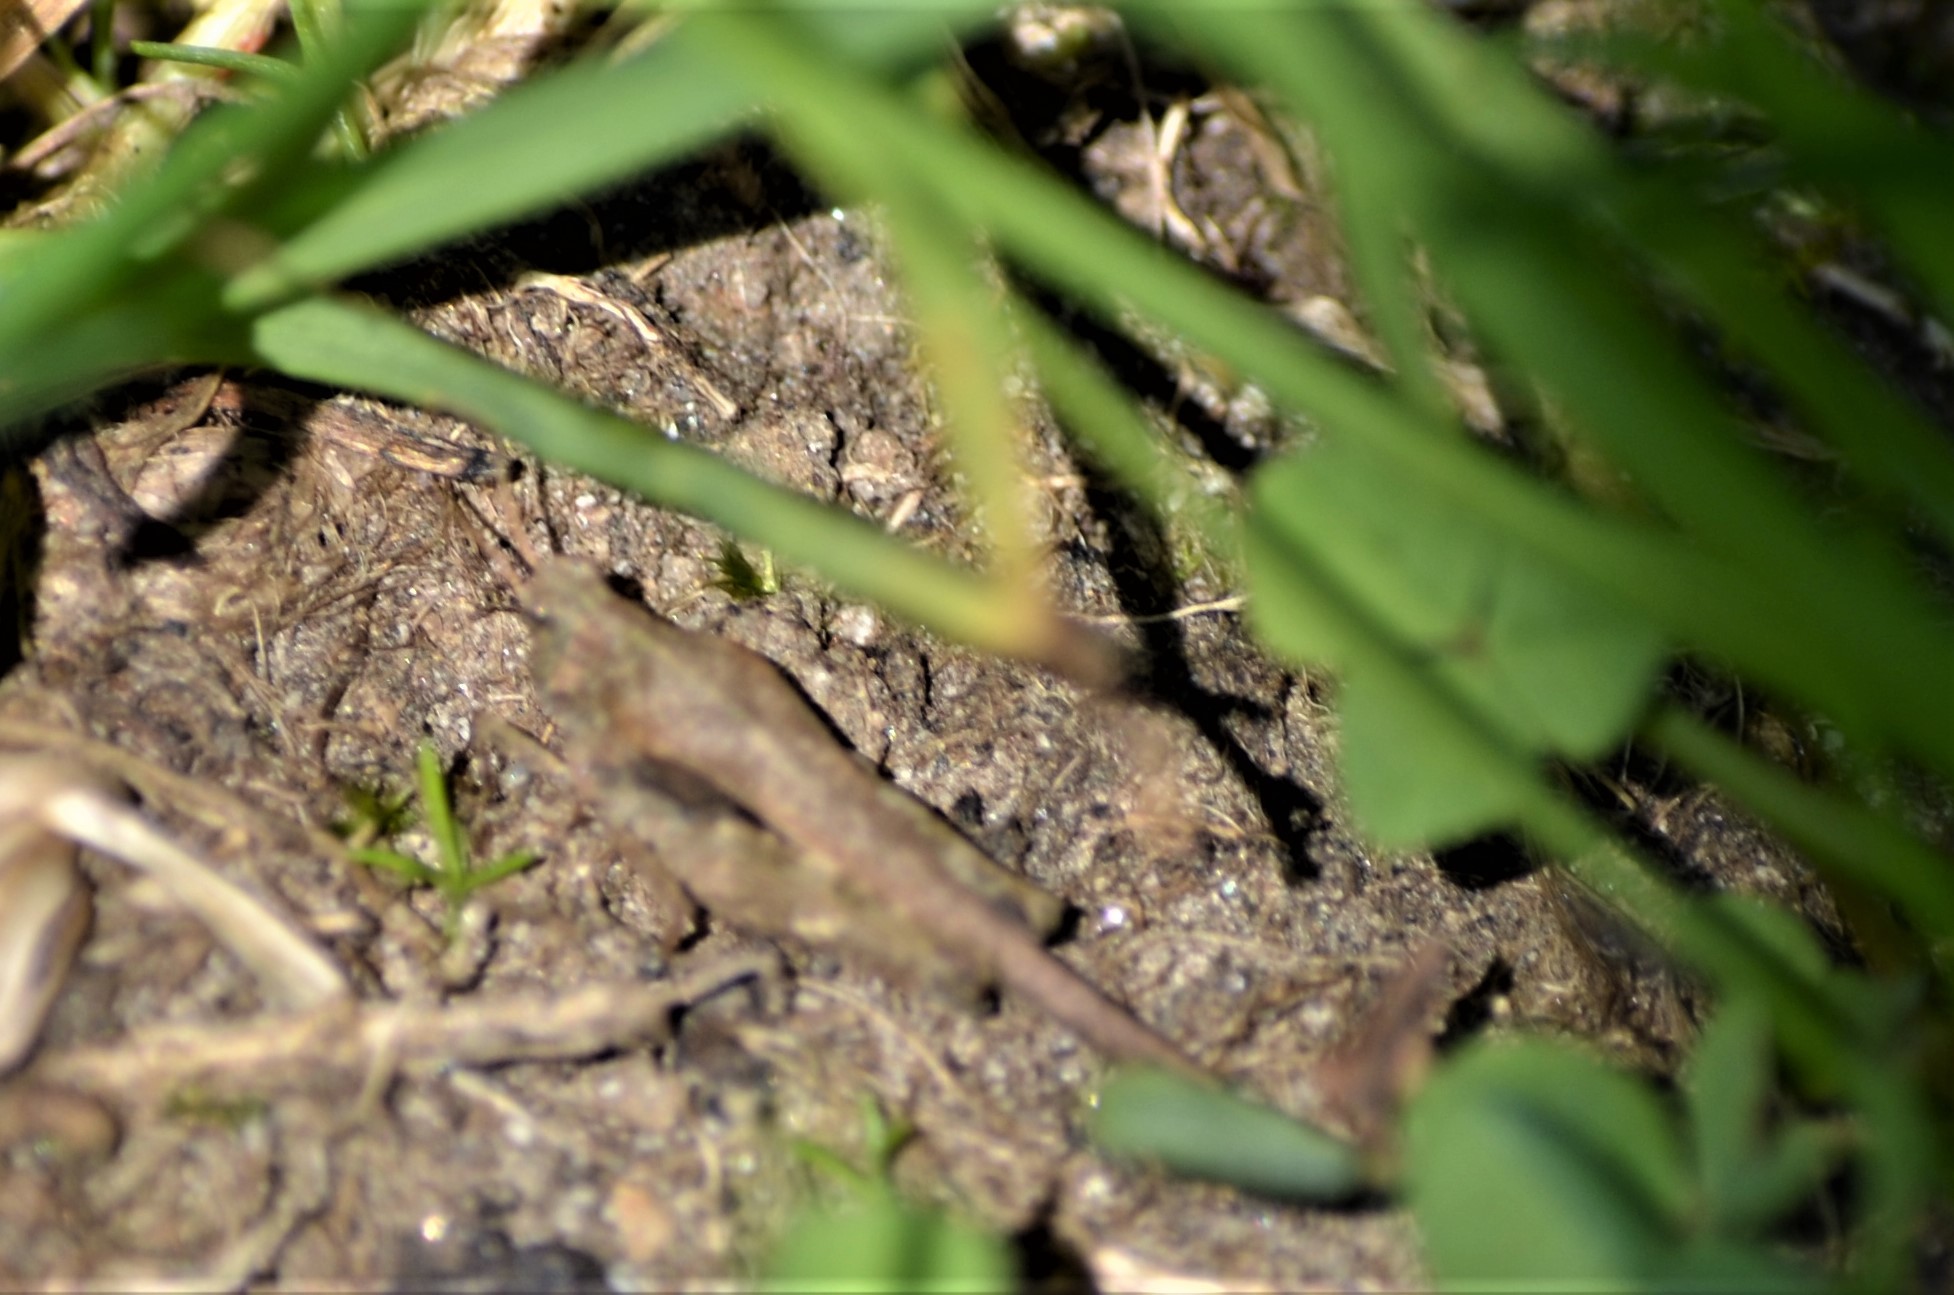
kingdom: Animalia
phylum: Arthropoda
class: Insecta
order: Orthoptera
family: Tetrigidae
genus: Tetrix
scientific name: Tetrix subulata
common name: Slender ground-hopper
